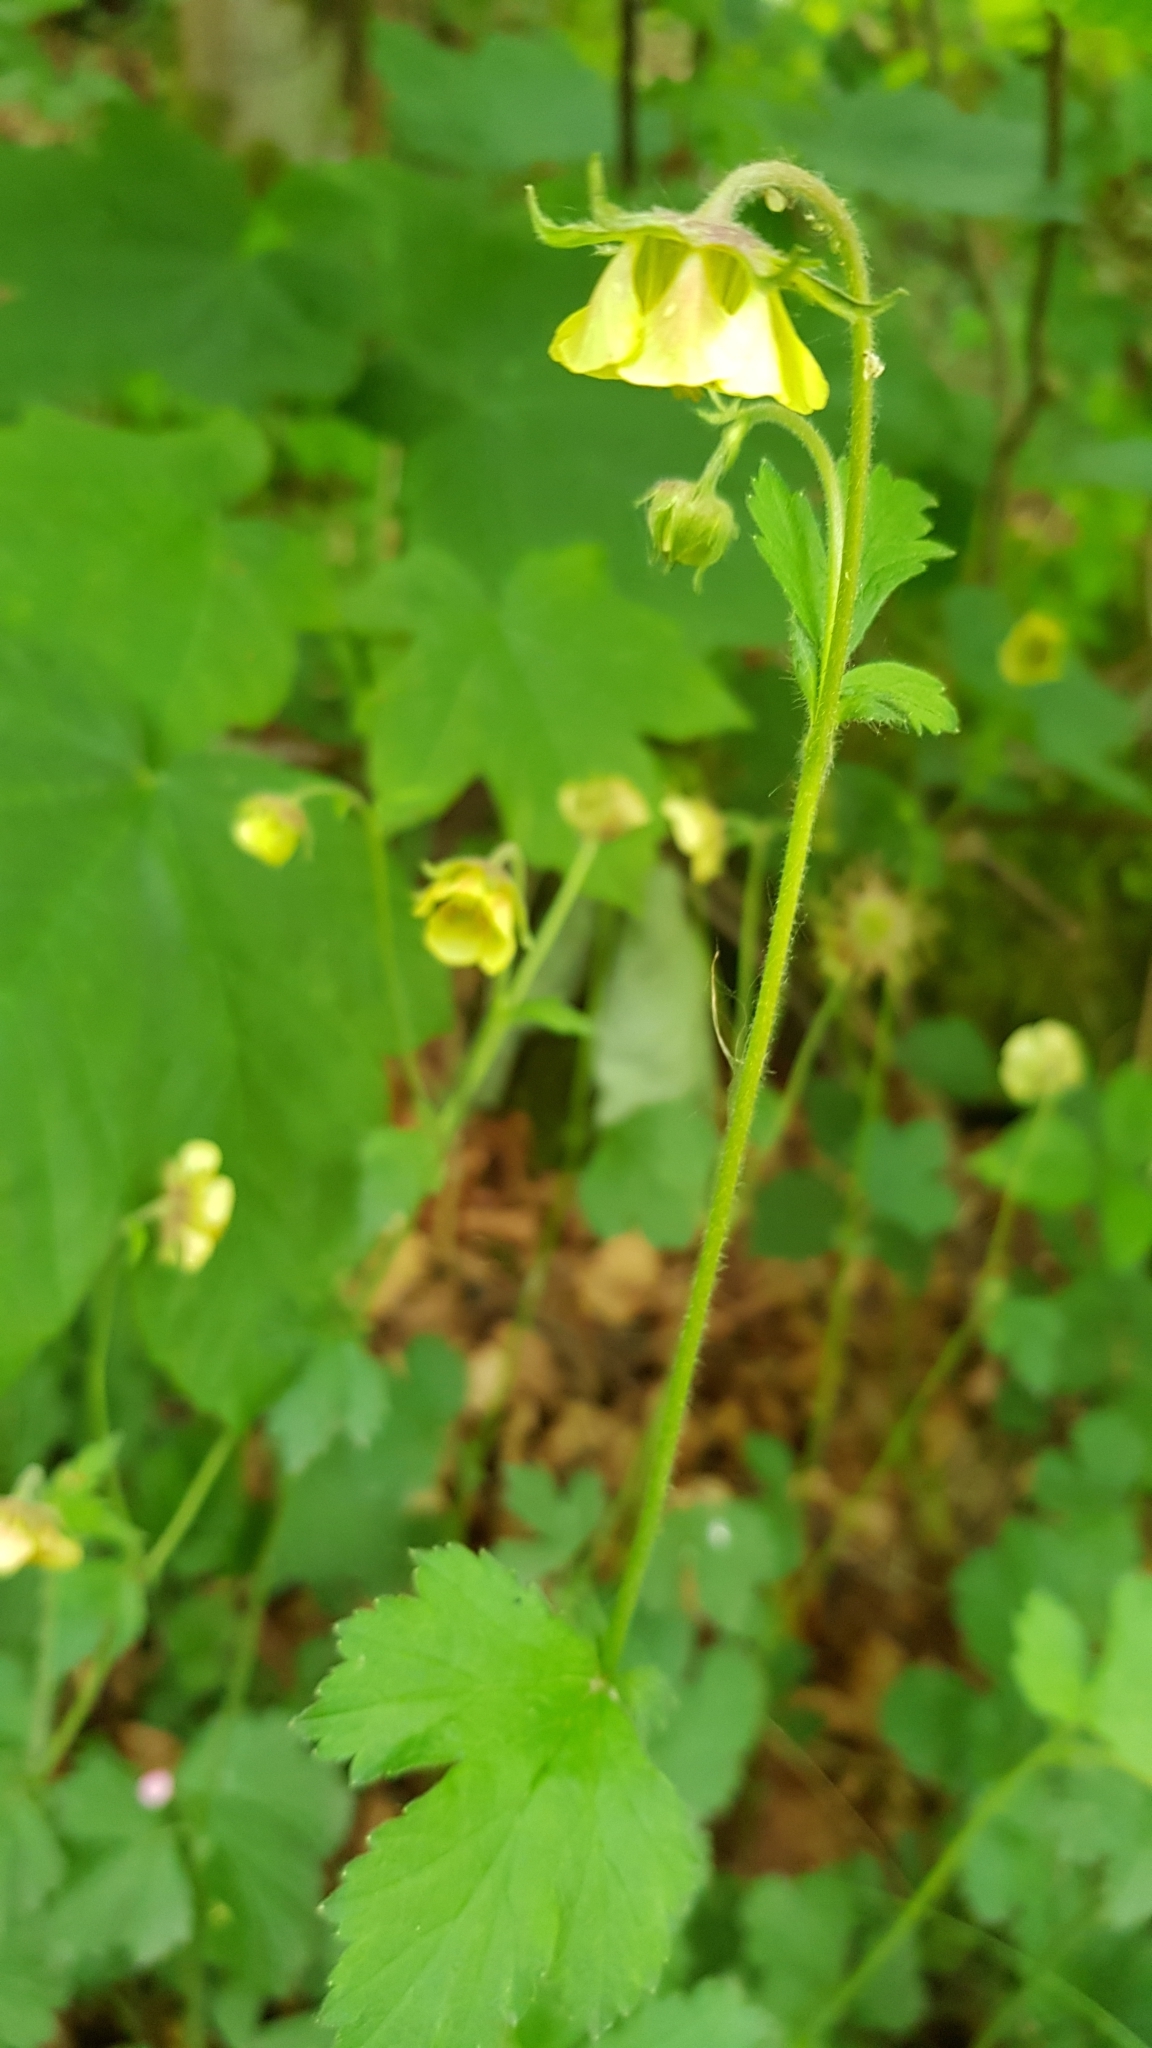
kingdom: Plantae
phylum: Tracheophyta
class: Magnoliopsida
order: Rosales
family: Rosaceae
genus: Geum
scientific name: Geum intermedium
